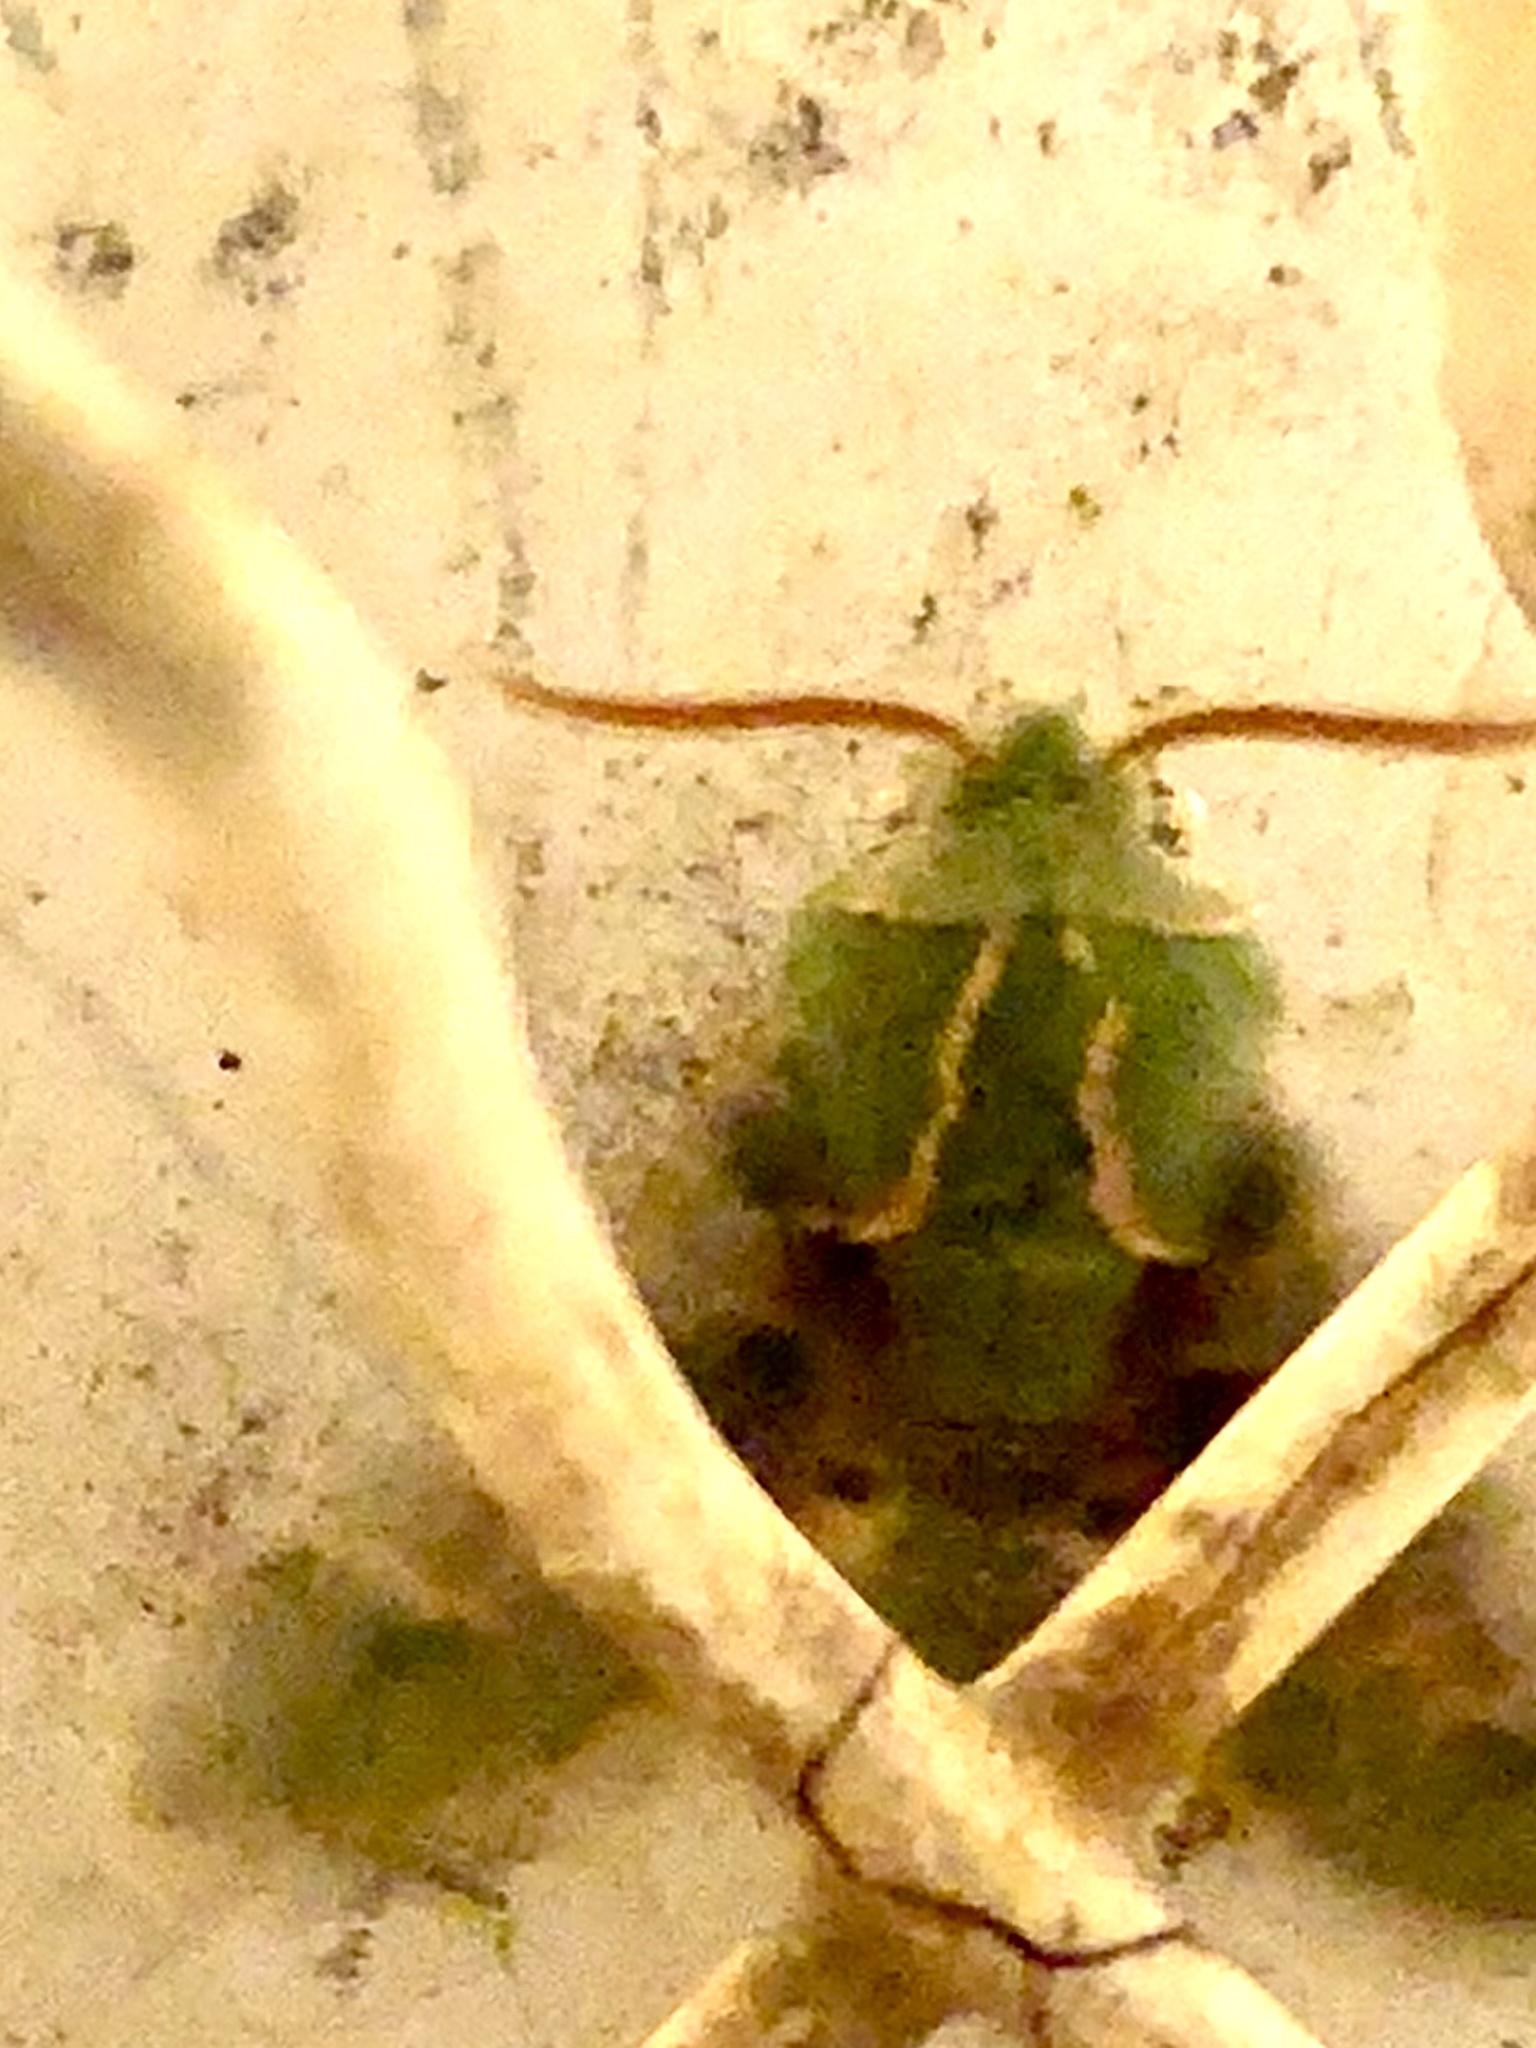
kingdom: Animalia
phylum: Arthropoda
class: Insecta
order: Lepidoptera
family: Sphingidae
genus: Proserpinus
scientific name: Proserpinus lucidus
